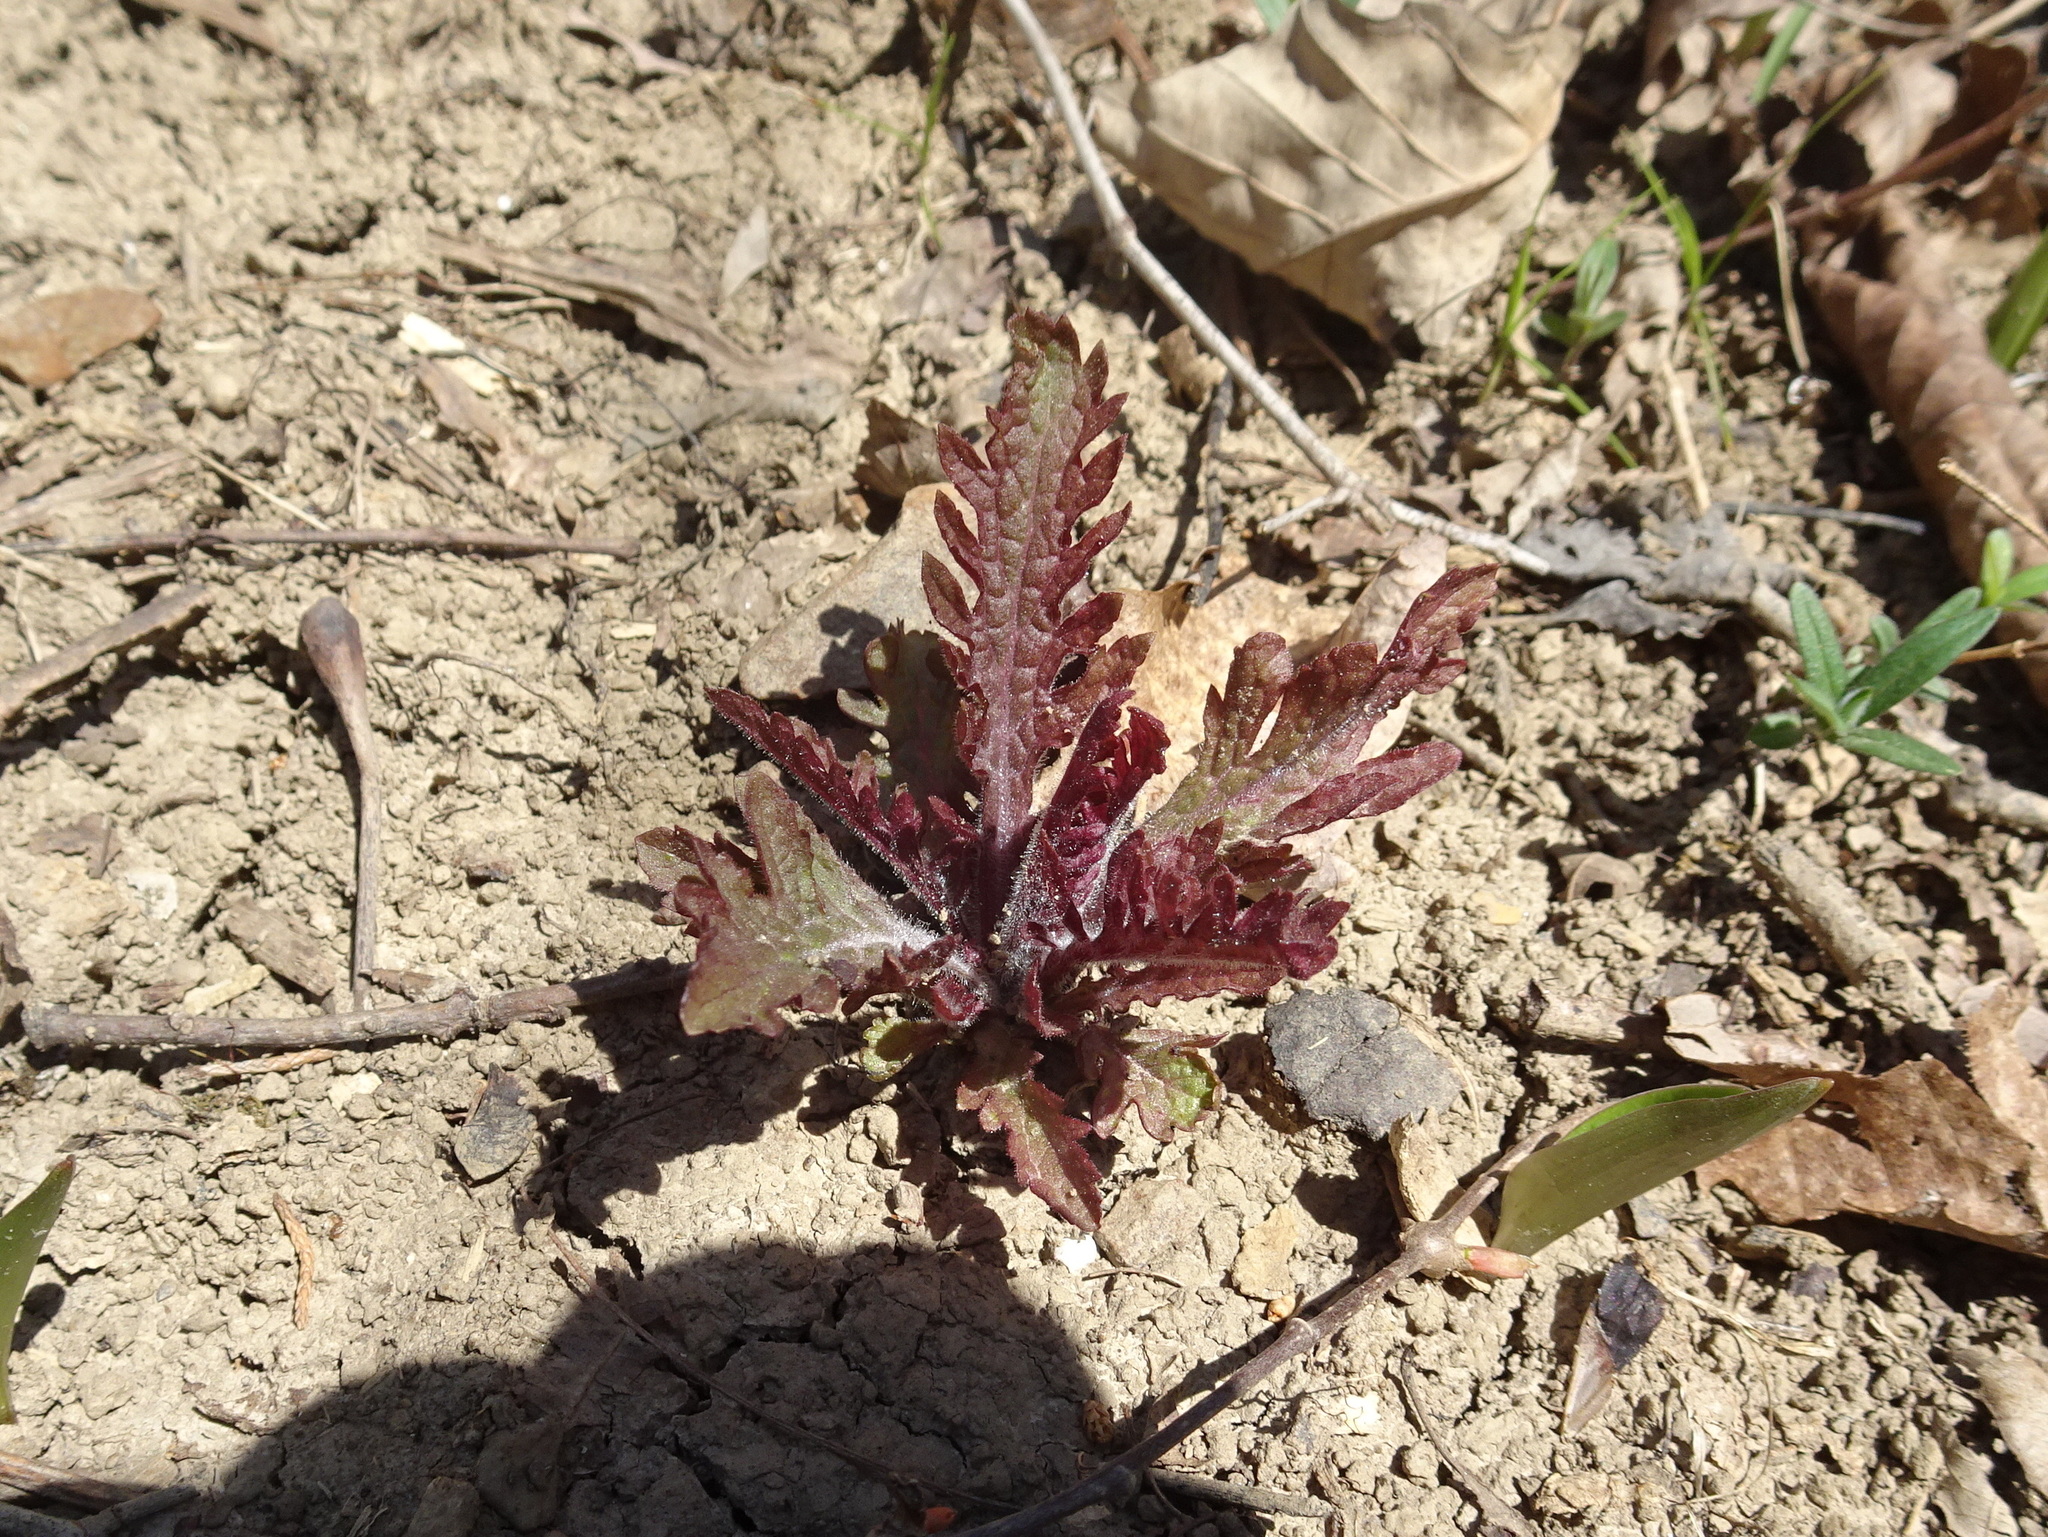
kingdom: Plantae
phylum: Tracheophyta
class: Magnoliopsida
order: Lamiales
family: Orobanchaceae
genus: Dasistoma
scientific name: Dasistoma macrophyllum
